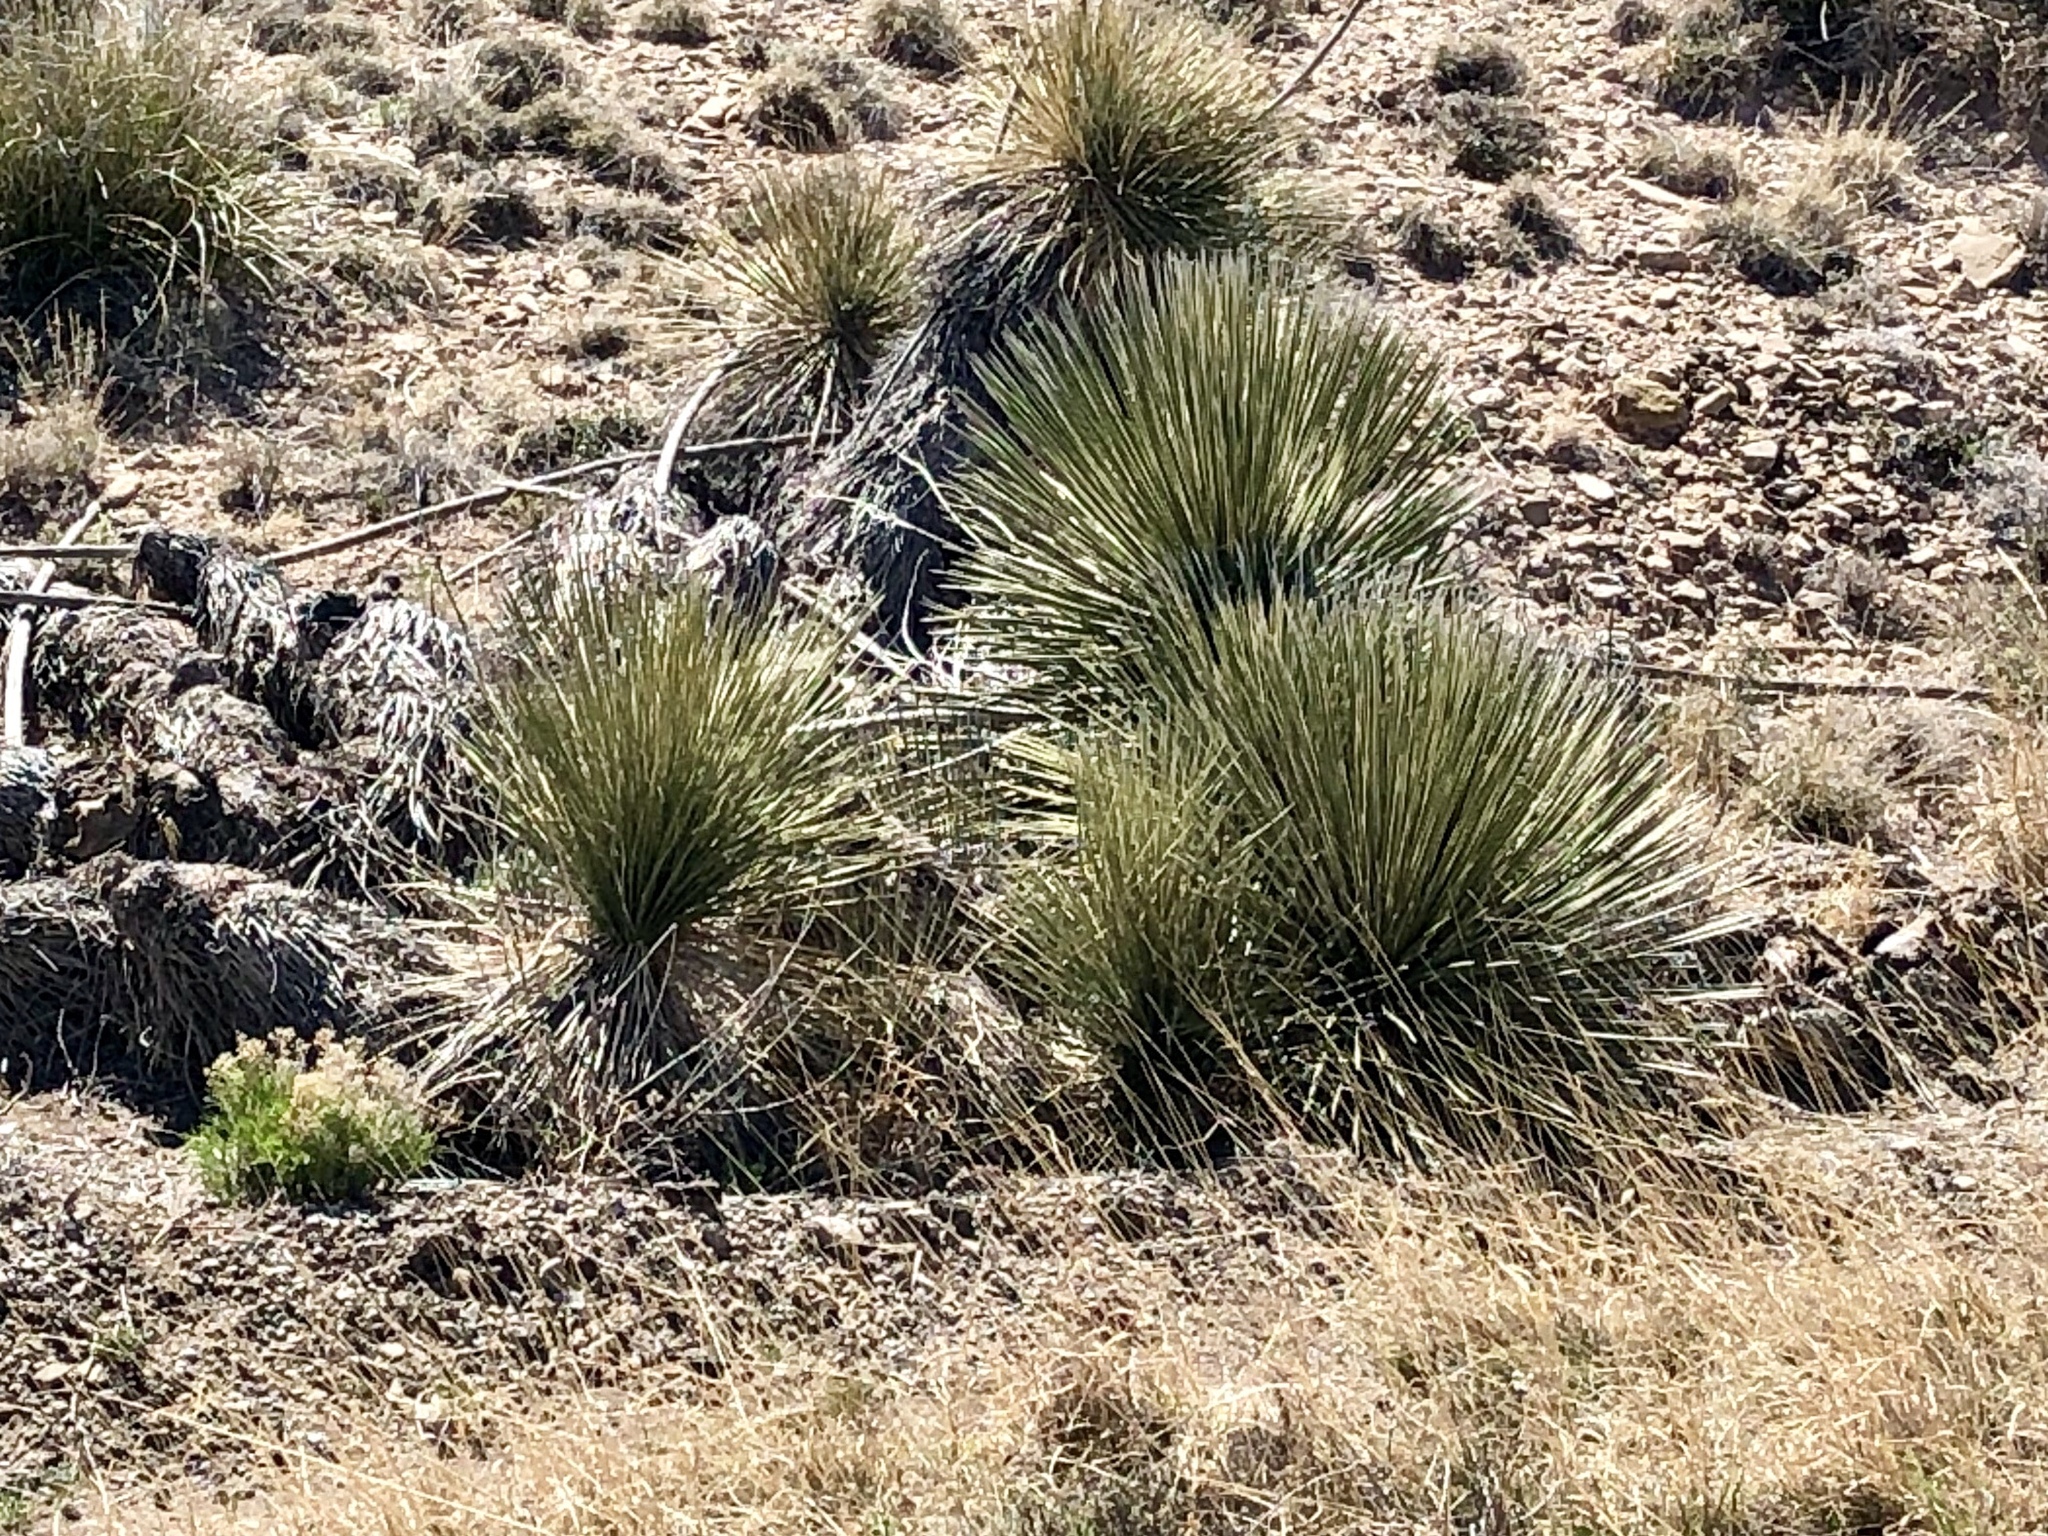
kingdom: Plantae
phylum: Tracheophyta
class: Liliopsida
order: Asparagales
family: Asparagaceae
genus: Yucca
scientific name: Yucca elata
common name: Palmella
